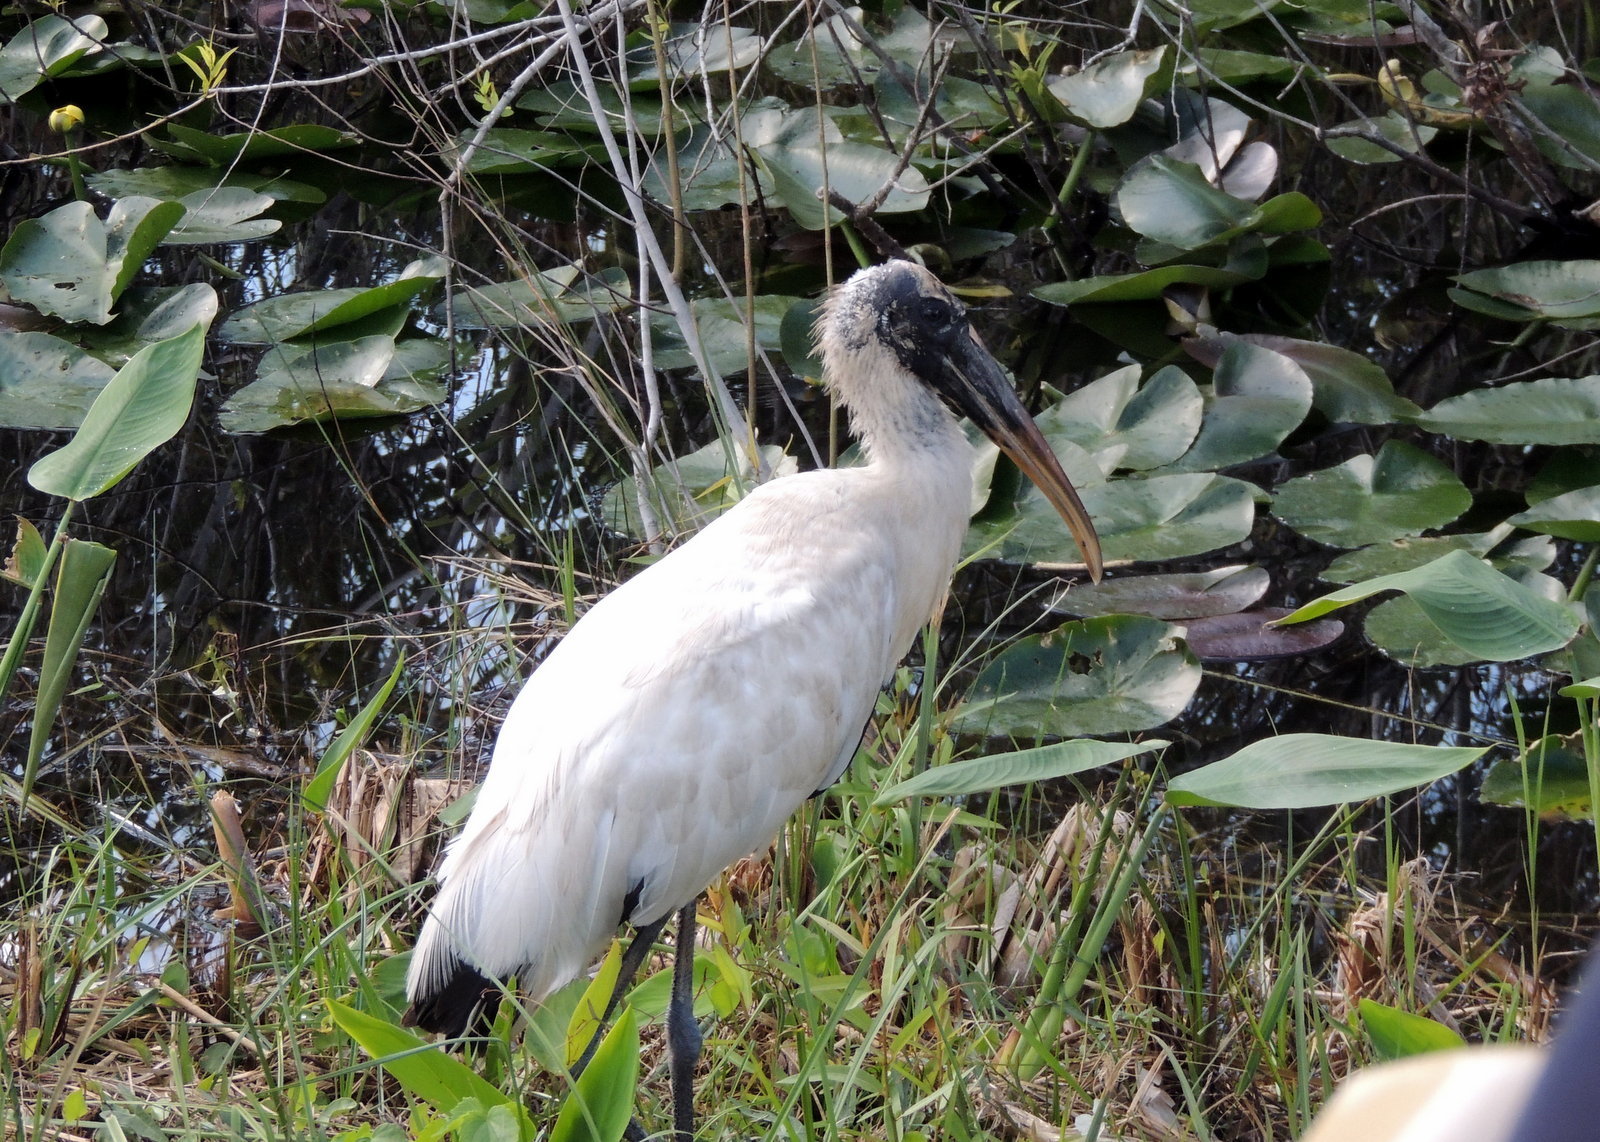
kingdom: Animalia
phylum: Chordata
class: Aves
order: Ciconiiformes
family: Ciconiidae
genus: Mycteria
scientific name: Mycteria americana
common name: Wood stork
